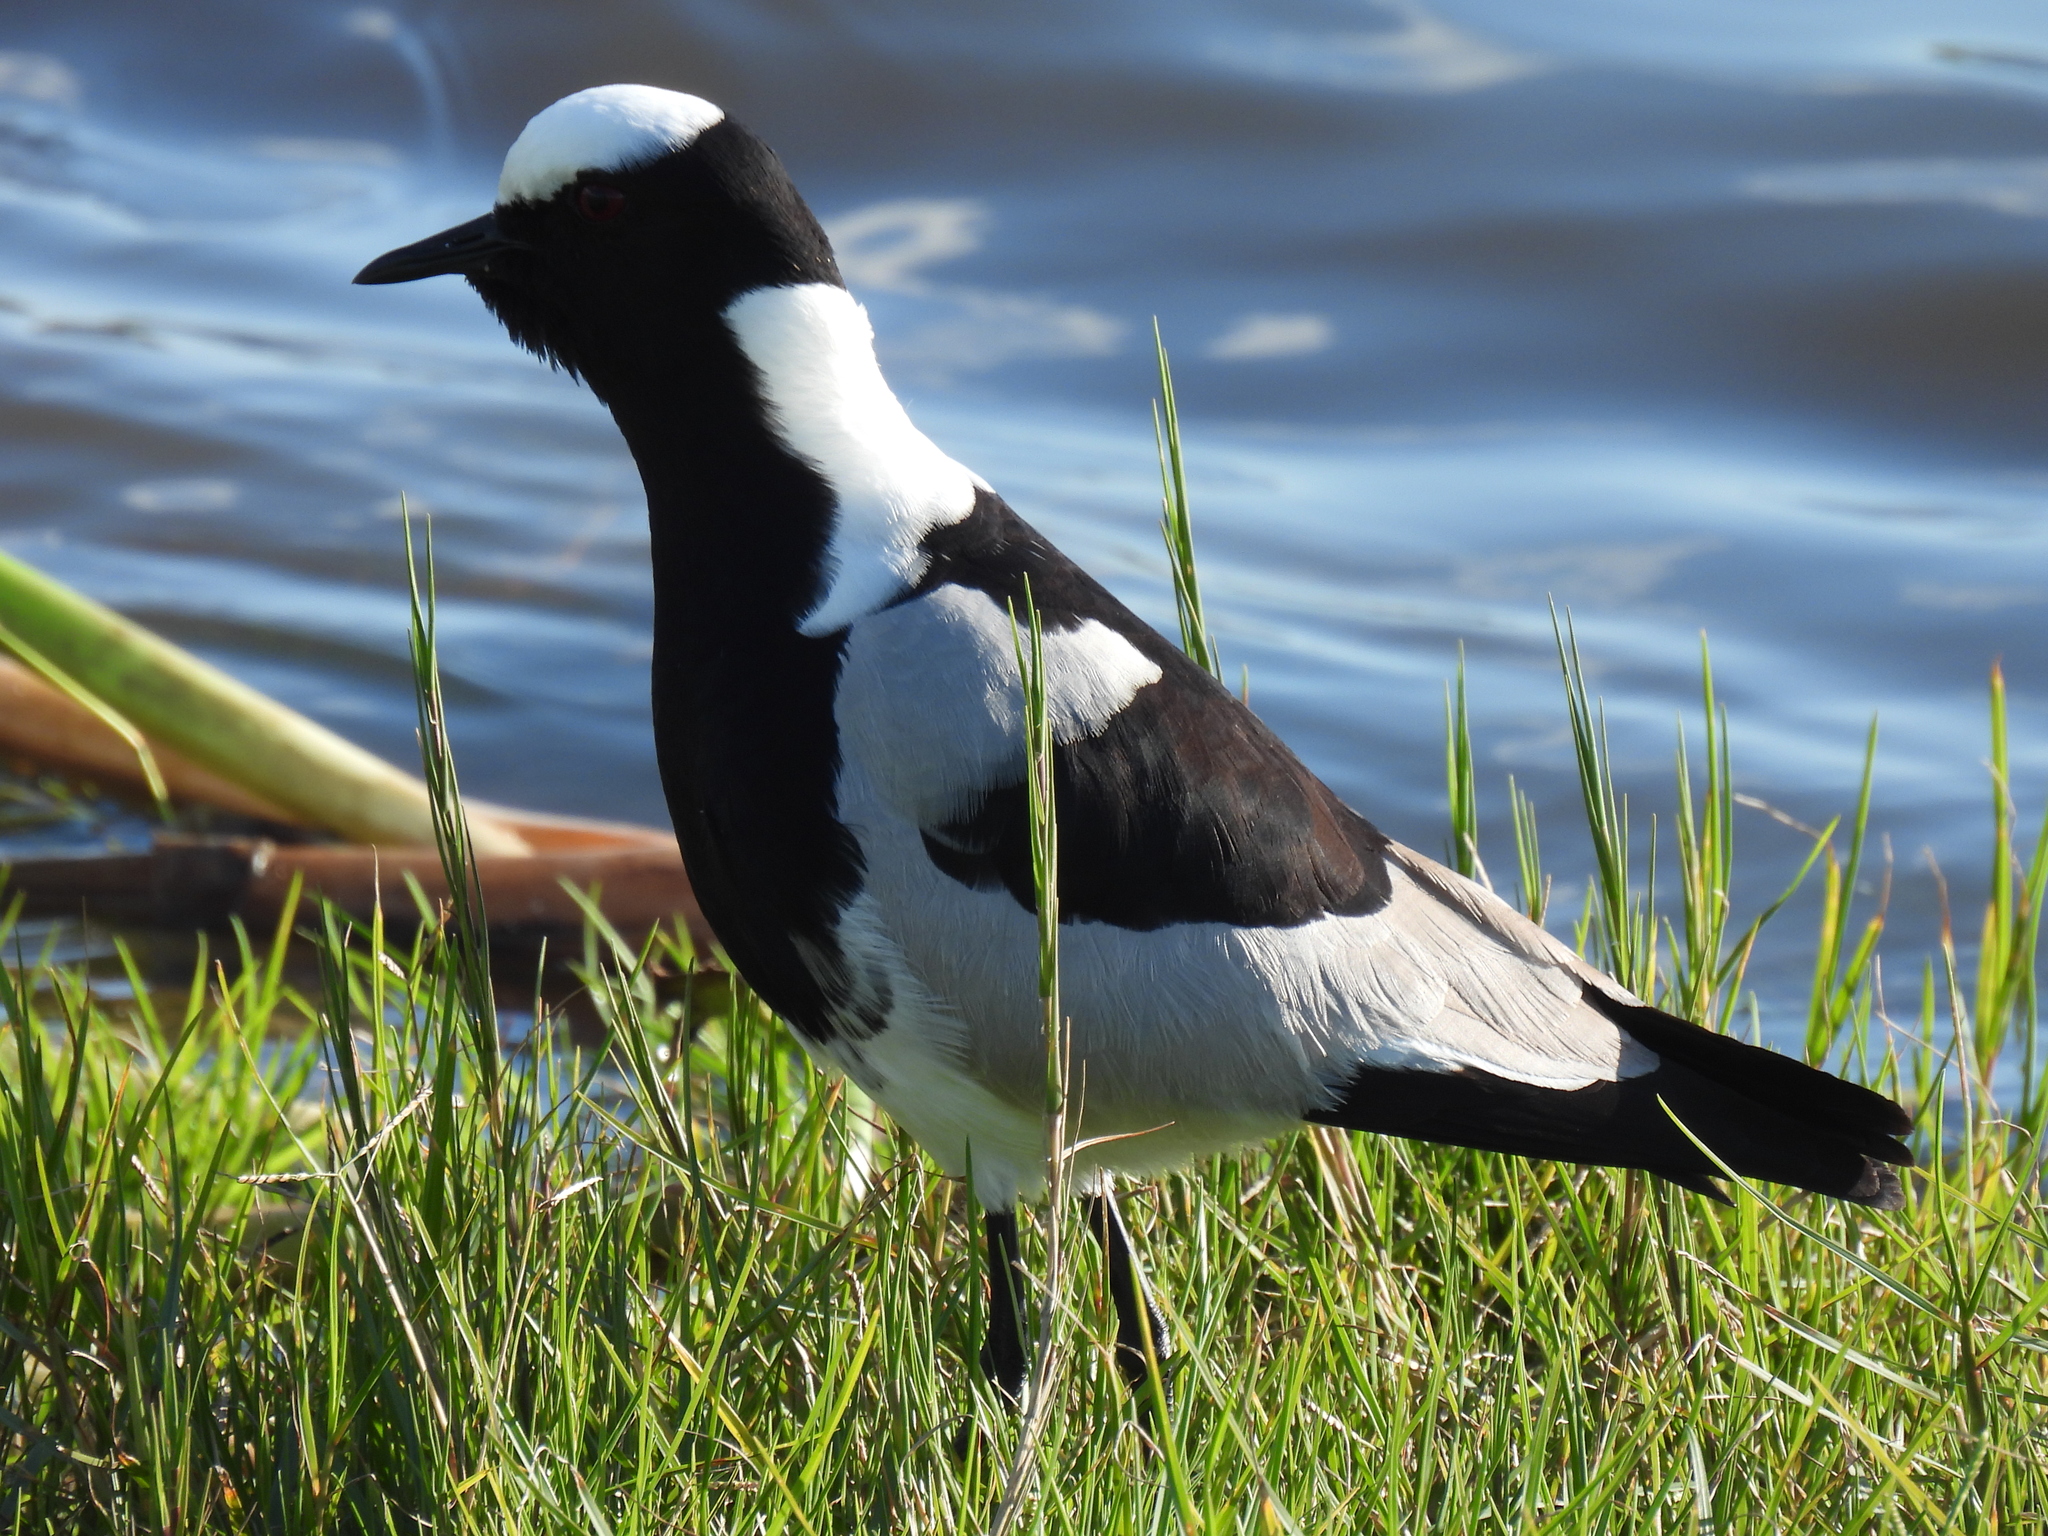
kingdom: Animalia
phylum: Chordata
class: Aves
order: Charadriiformes
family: Charadriidae
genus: Vanellus
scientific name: Vanellus armatus
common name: Blacksmith lapwing
